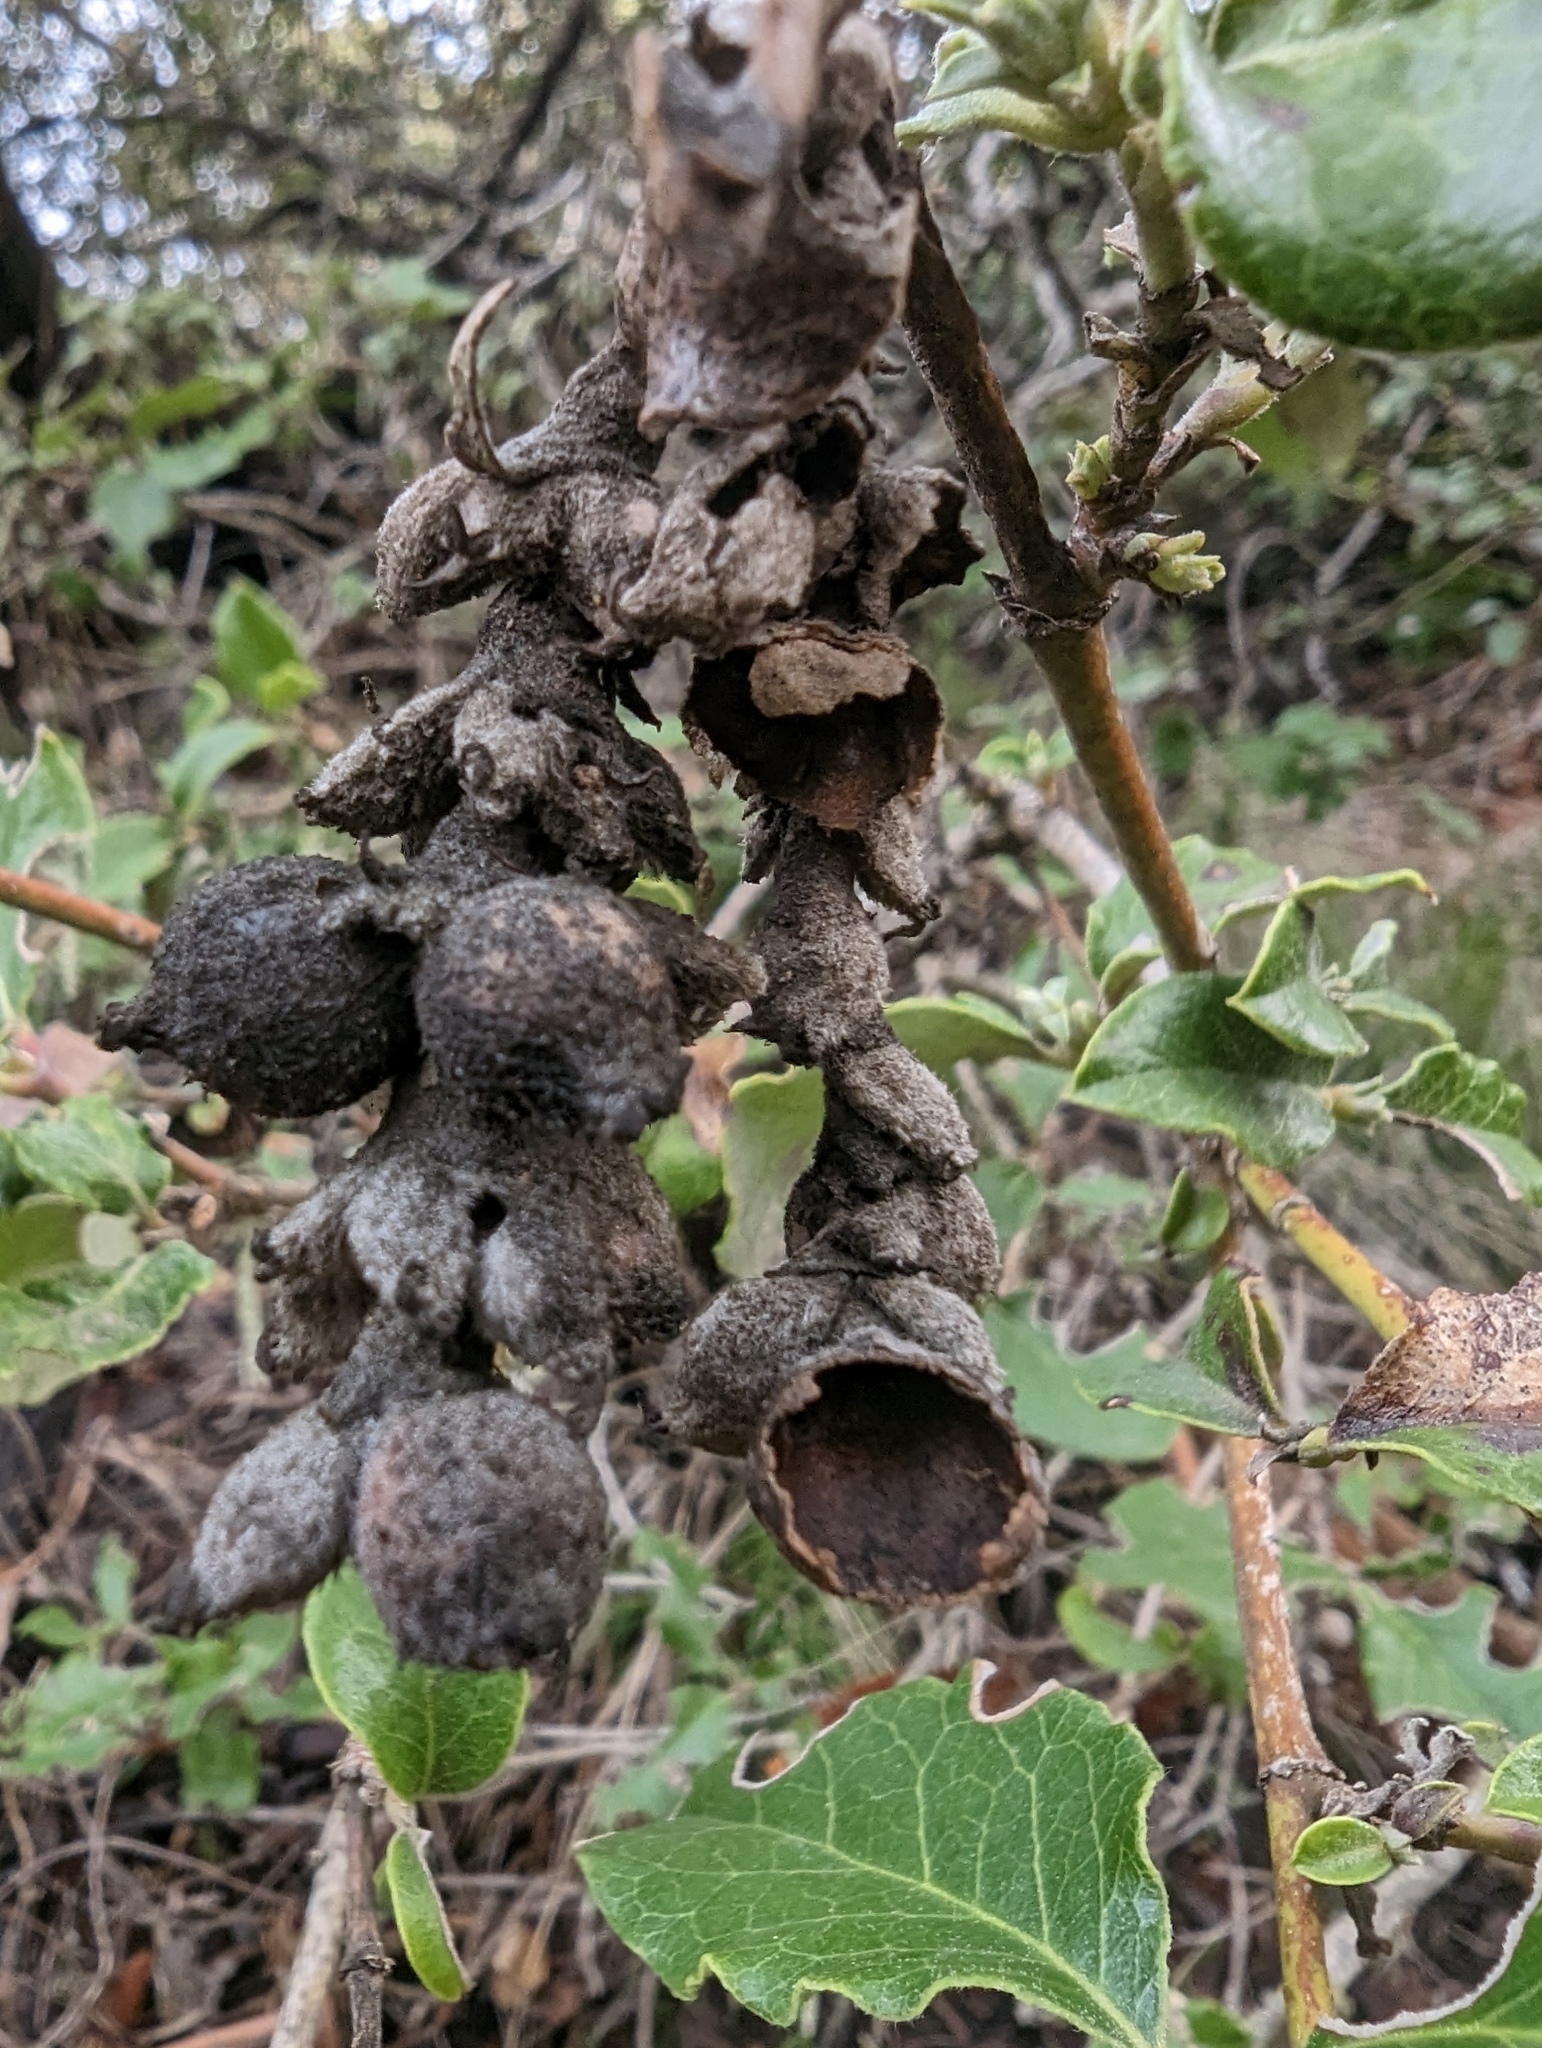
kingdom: Plantae
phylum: Tracheophyta
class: Magnoliopsida
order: Garryales
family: Garryaceae
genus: Garrya
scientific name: Garrya elliptica
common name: Silk-tassel
